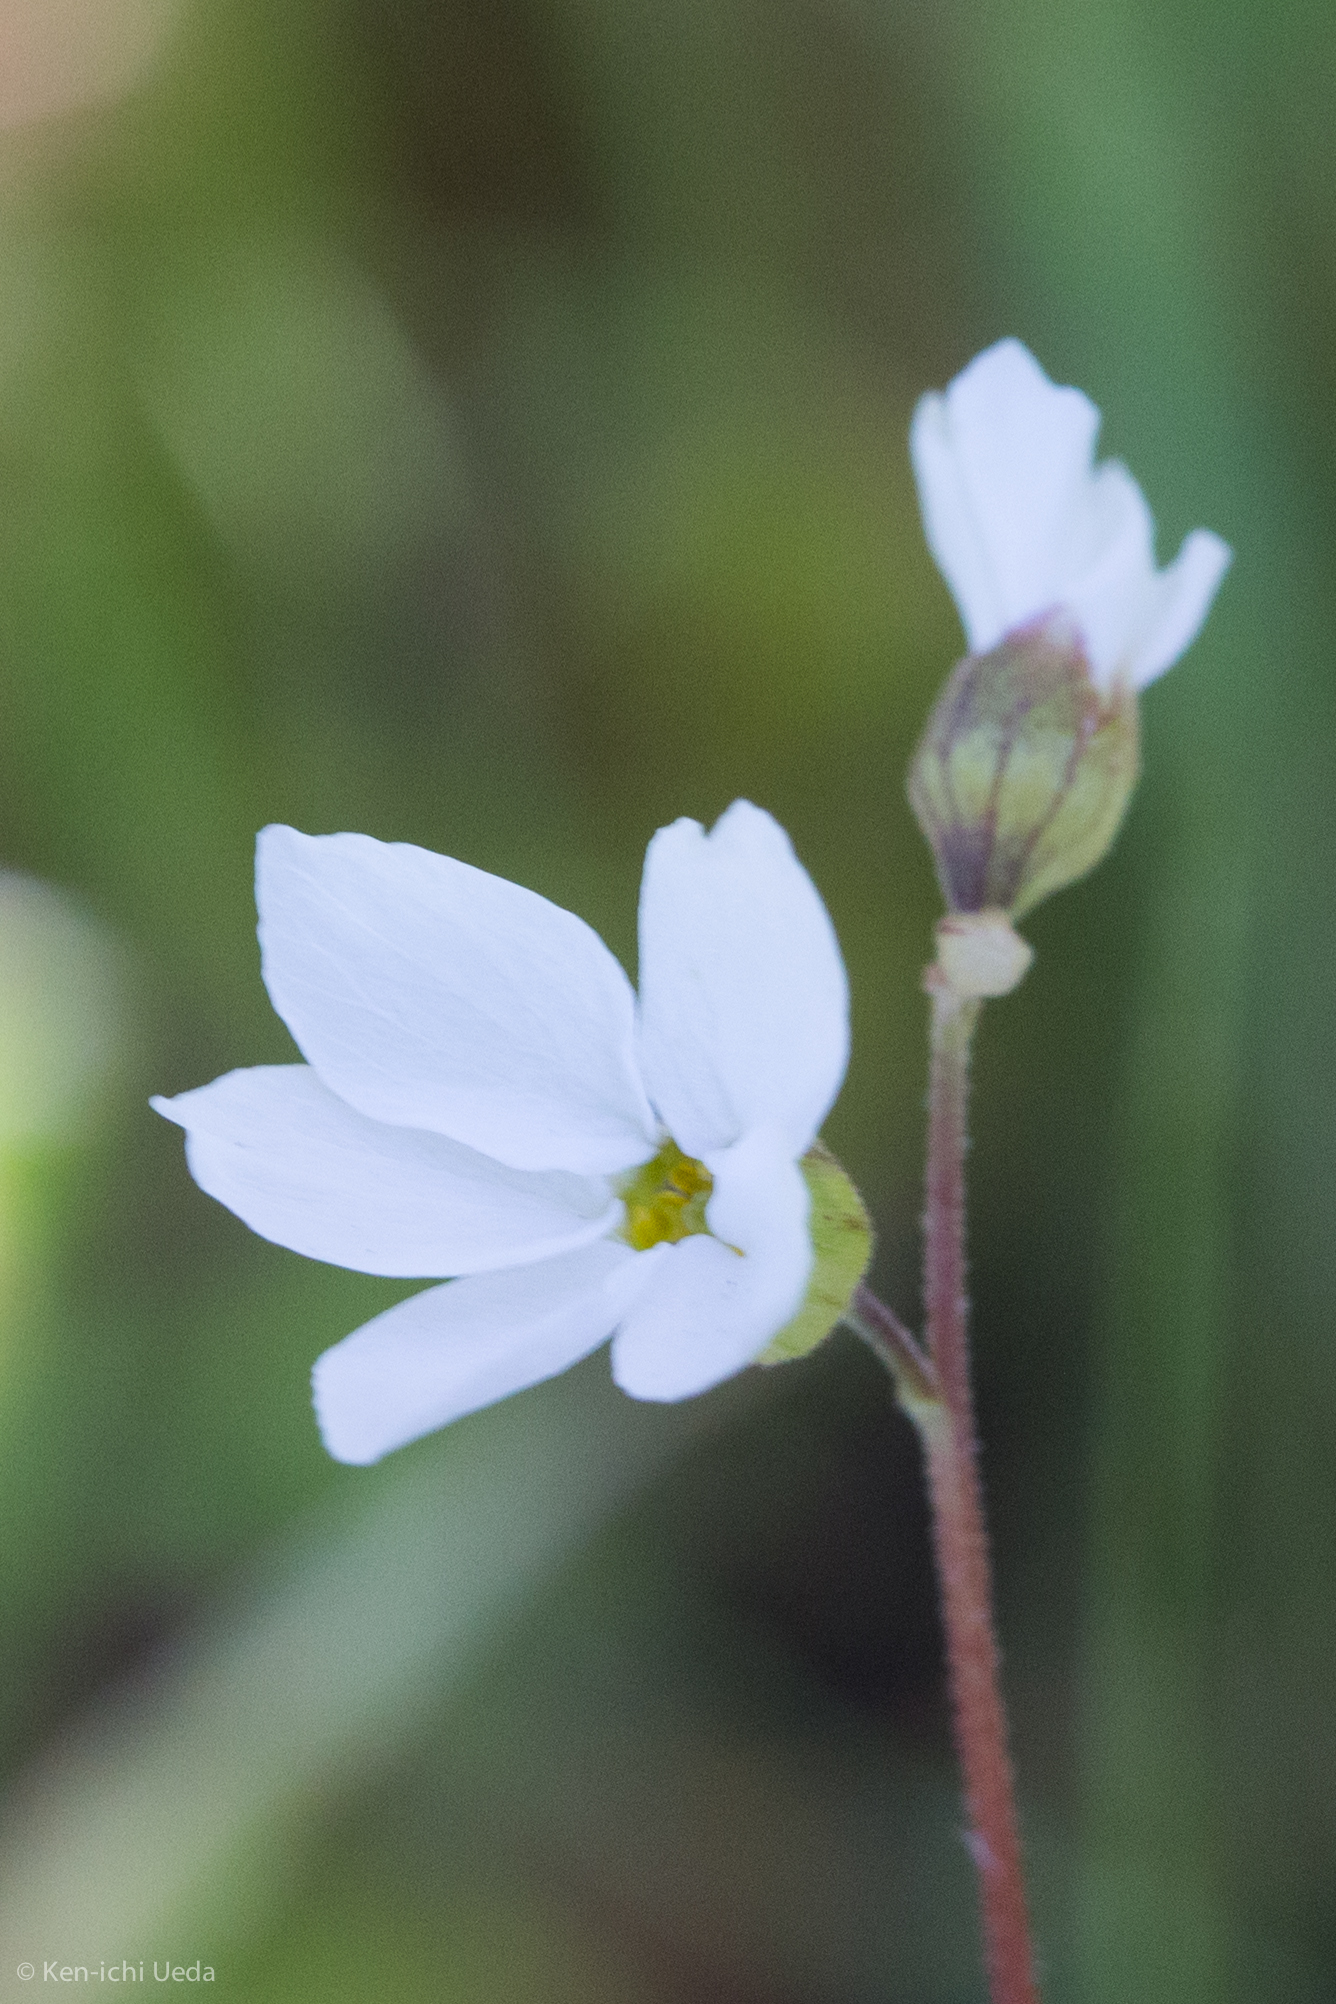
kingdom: Plantae
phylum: Tracheophyta
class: Magnoliopsida
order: Saxifragales
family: Saxifragaceae
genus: Lithophragma
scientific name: Lithophragma cymbalaria
